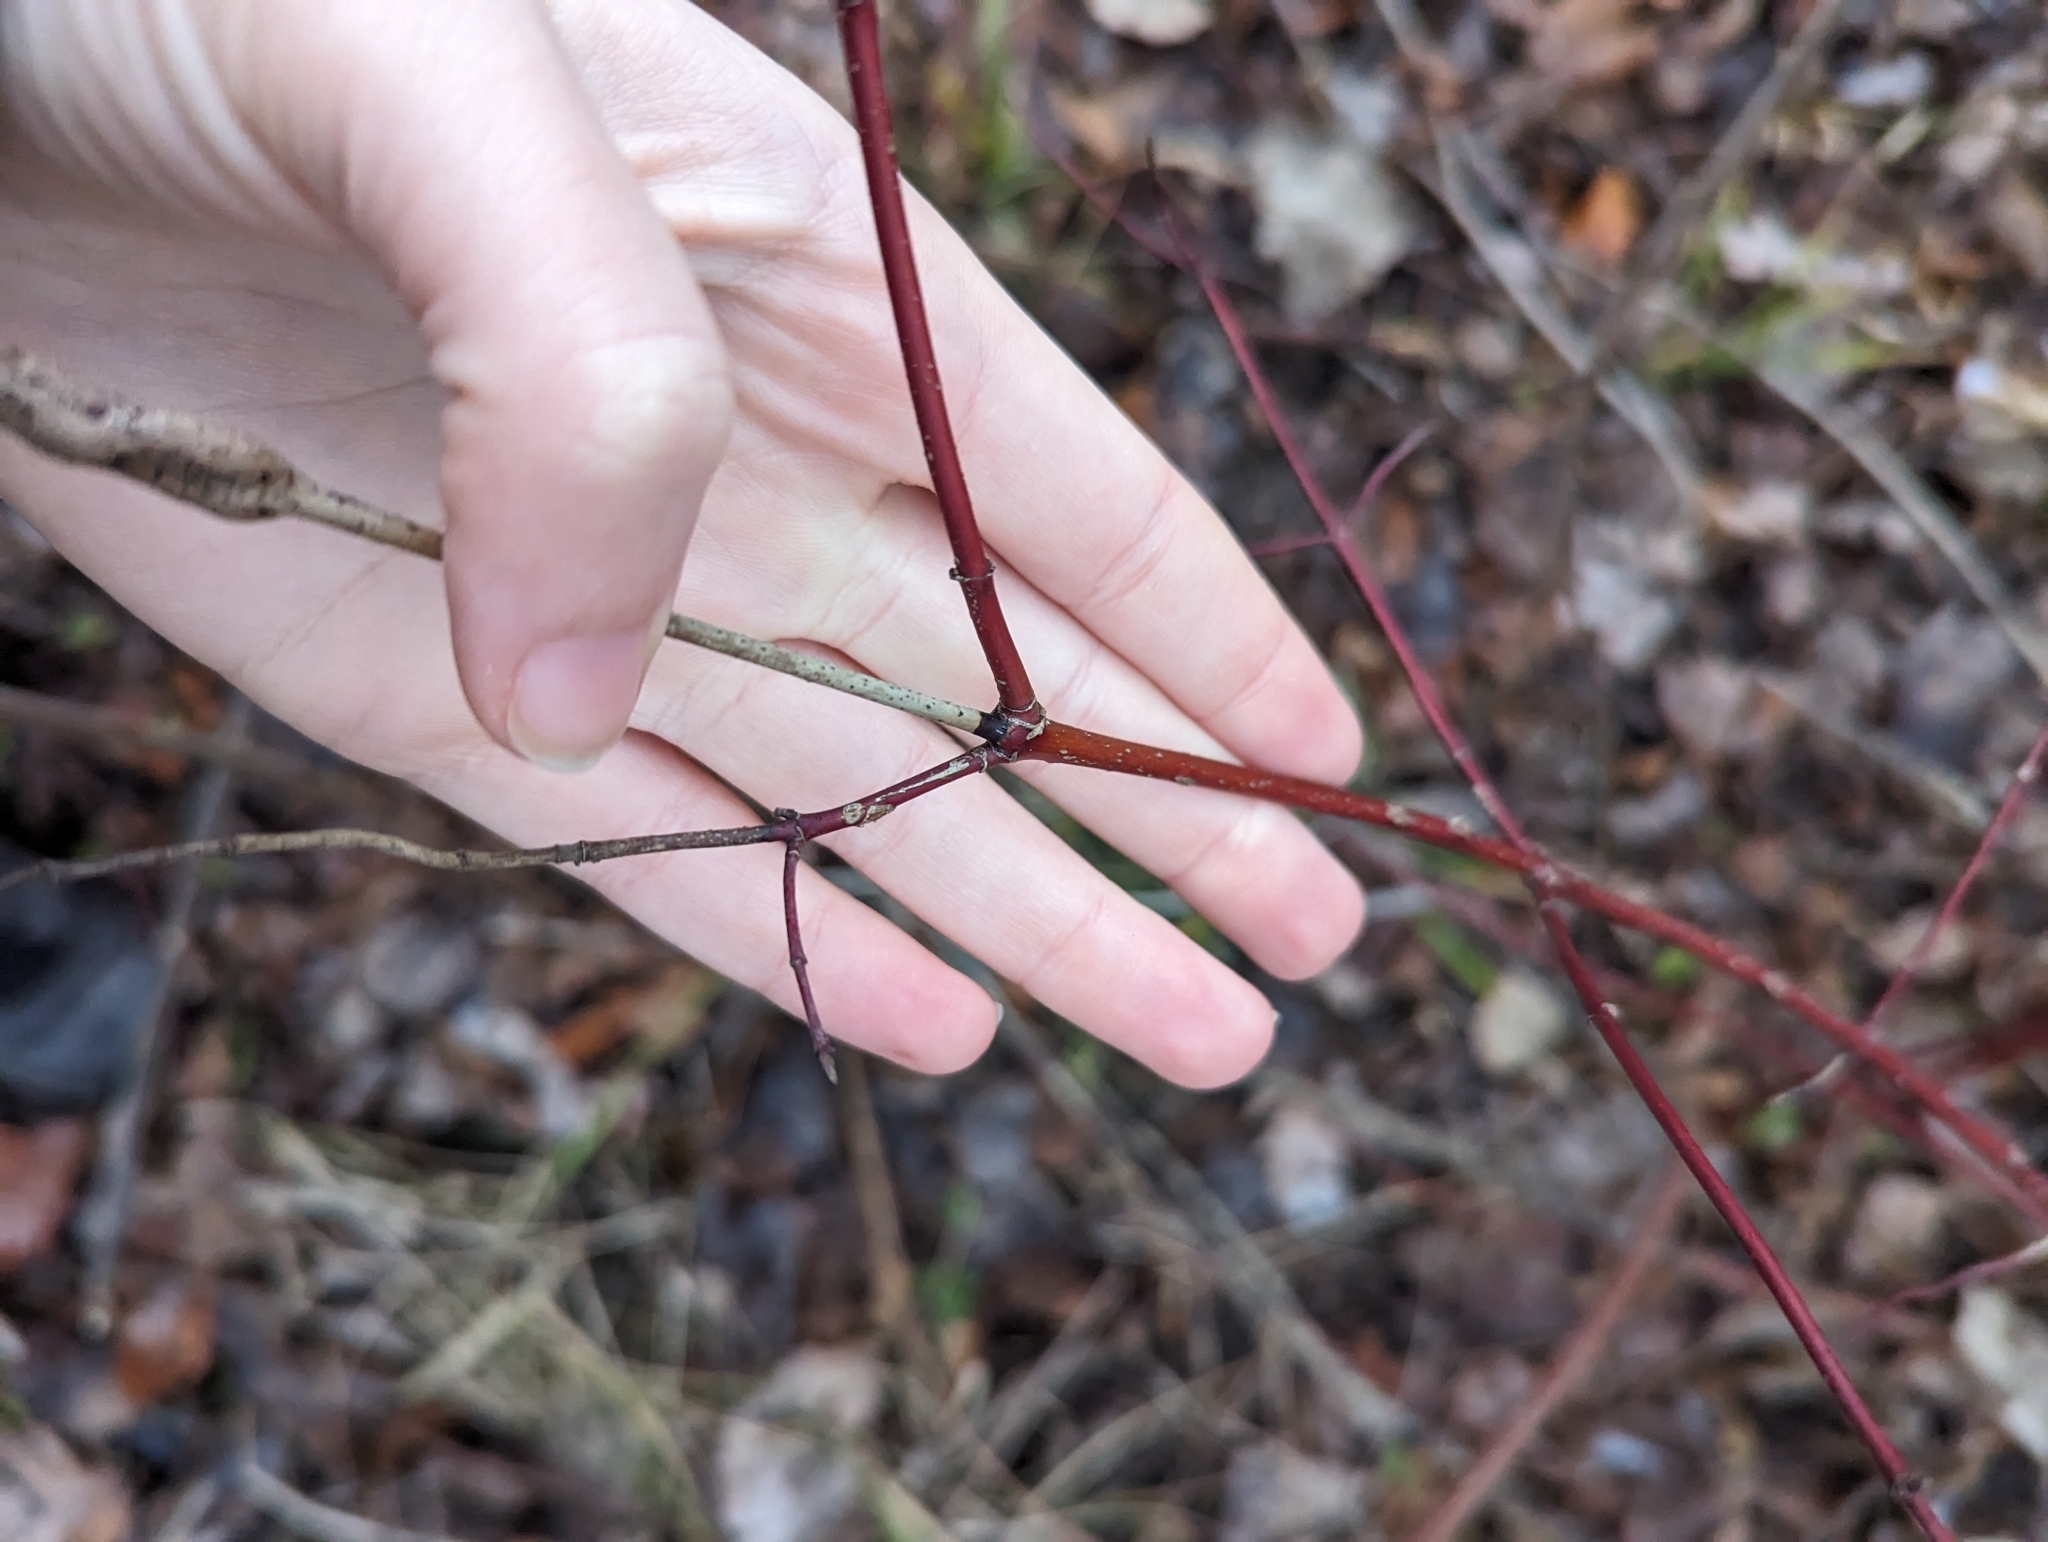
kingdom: Plantae
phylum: Tracheophyta
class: Magnoliopsida
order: Cornales
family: Cornaceae
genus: Cornus
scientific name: Cornus sericea
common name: Red-osier dogwood
